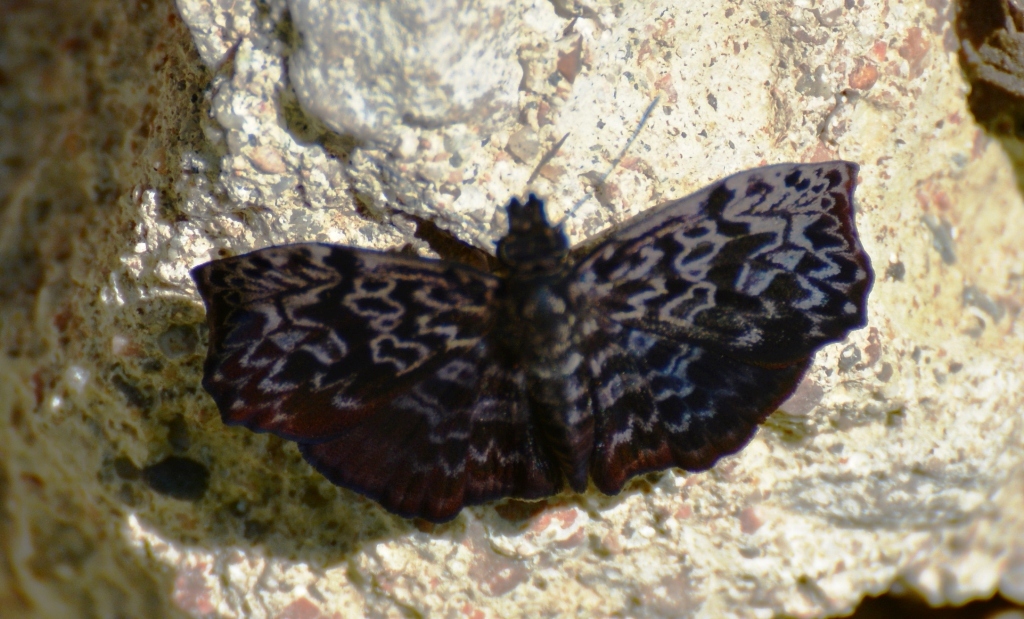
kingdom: Animalia
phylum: Arthropoda
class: Insecta
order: Lepidoptera
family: Hesperiidae
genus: Cycloglypha
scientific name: Cycloglypha thrasibulus
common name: Widespread bent-skipper
